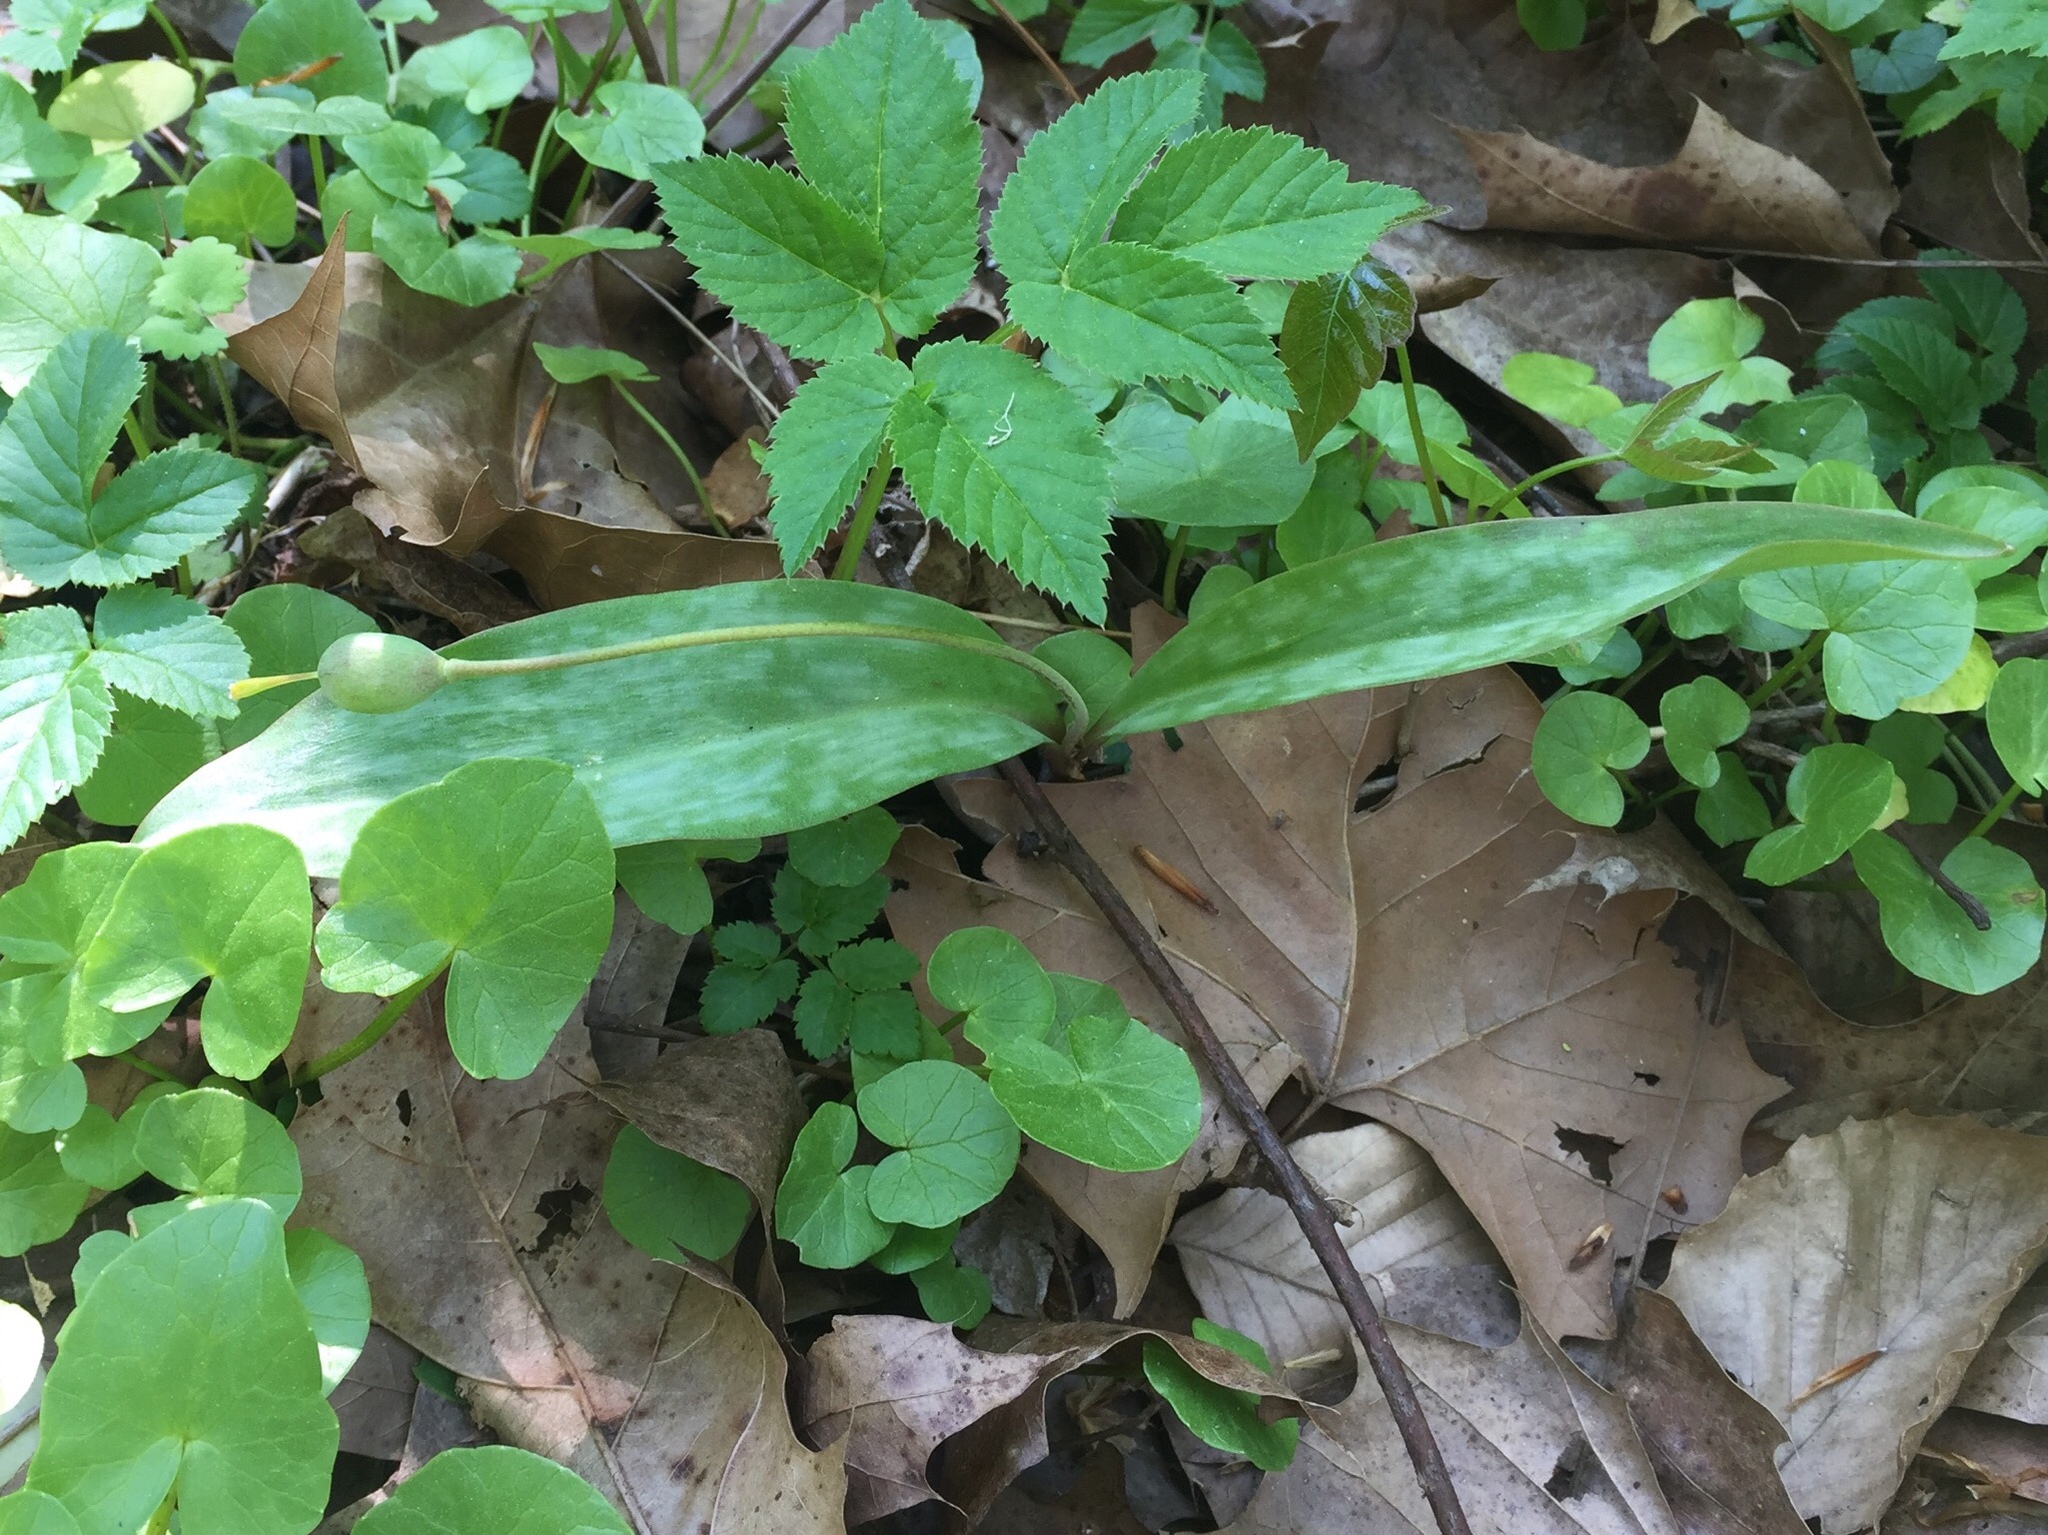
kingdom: Plantae
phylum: Tracheophyta
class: Liliopsida
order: Liliales
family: Liliaceae
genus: Erythronium
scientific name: Erythronium americanum
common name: Yellow adder's-tongue
